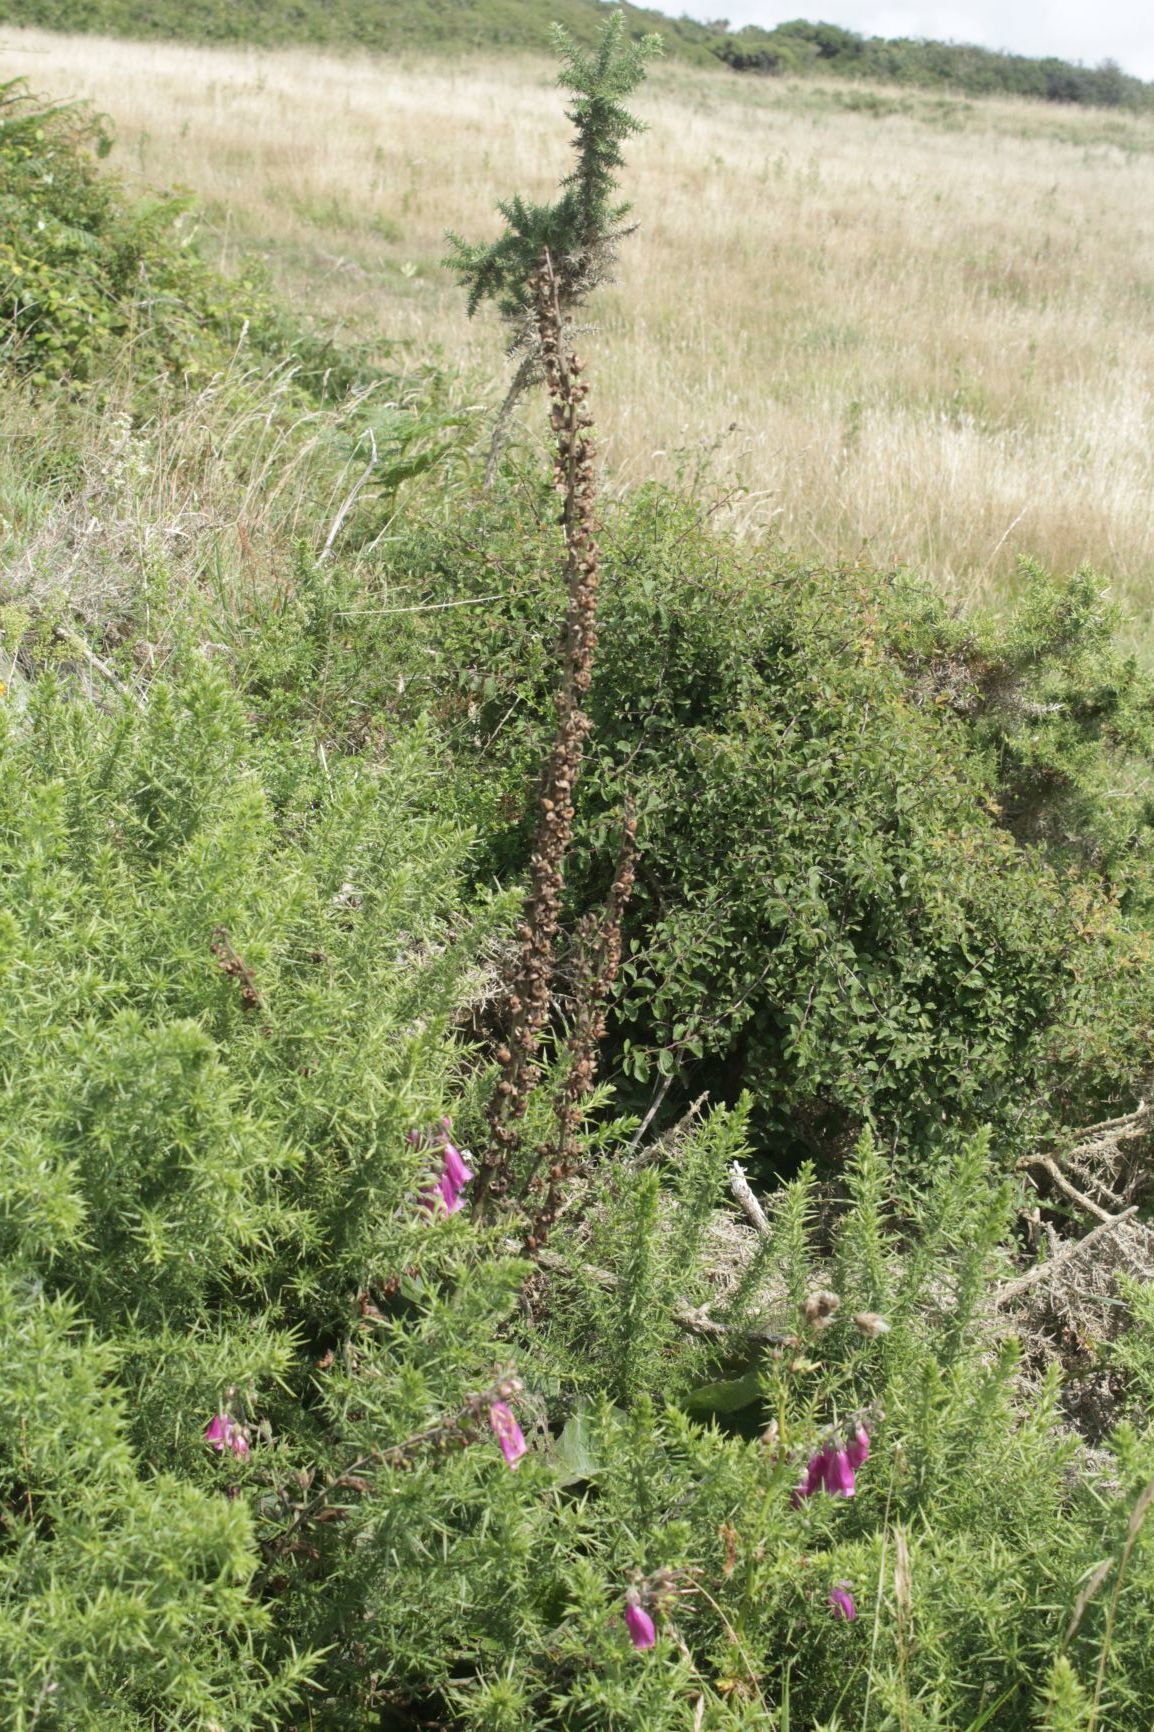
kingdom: Plantae
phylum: Tracheophyta
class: Magnoliopsida
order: Lamiales
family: Plantaginaceae
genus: Digitalis
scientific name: Digitalis purpurea
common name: Foxglove
